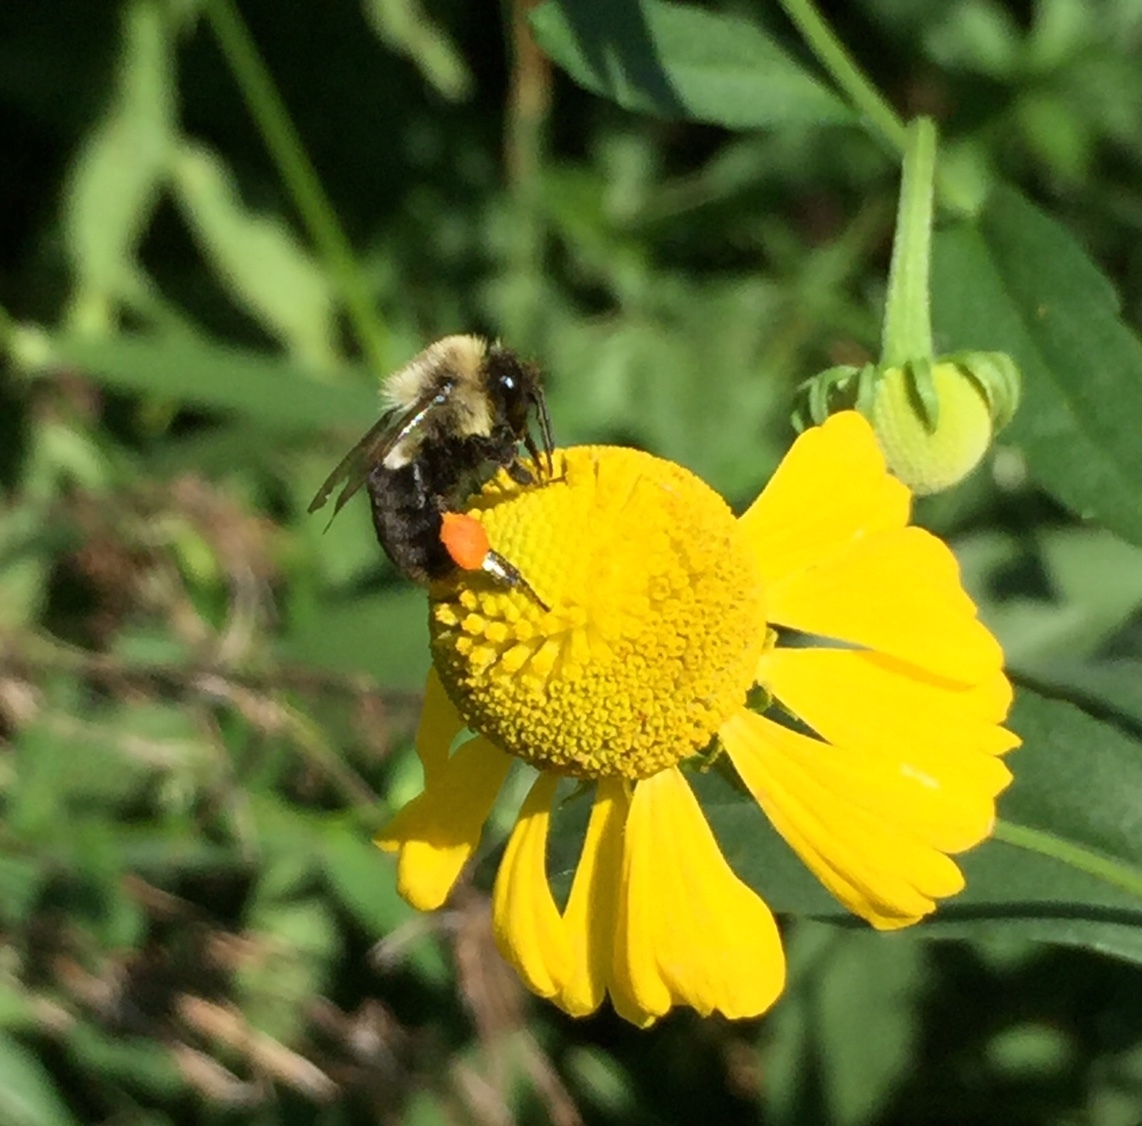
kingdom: Animalia
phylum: Arthropoda
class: Insecta
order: Hymenoptera
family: Apidae
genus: Bombus
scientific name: Bombus impatiens
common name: Common eastern bumble bee
